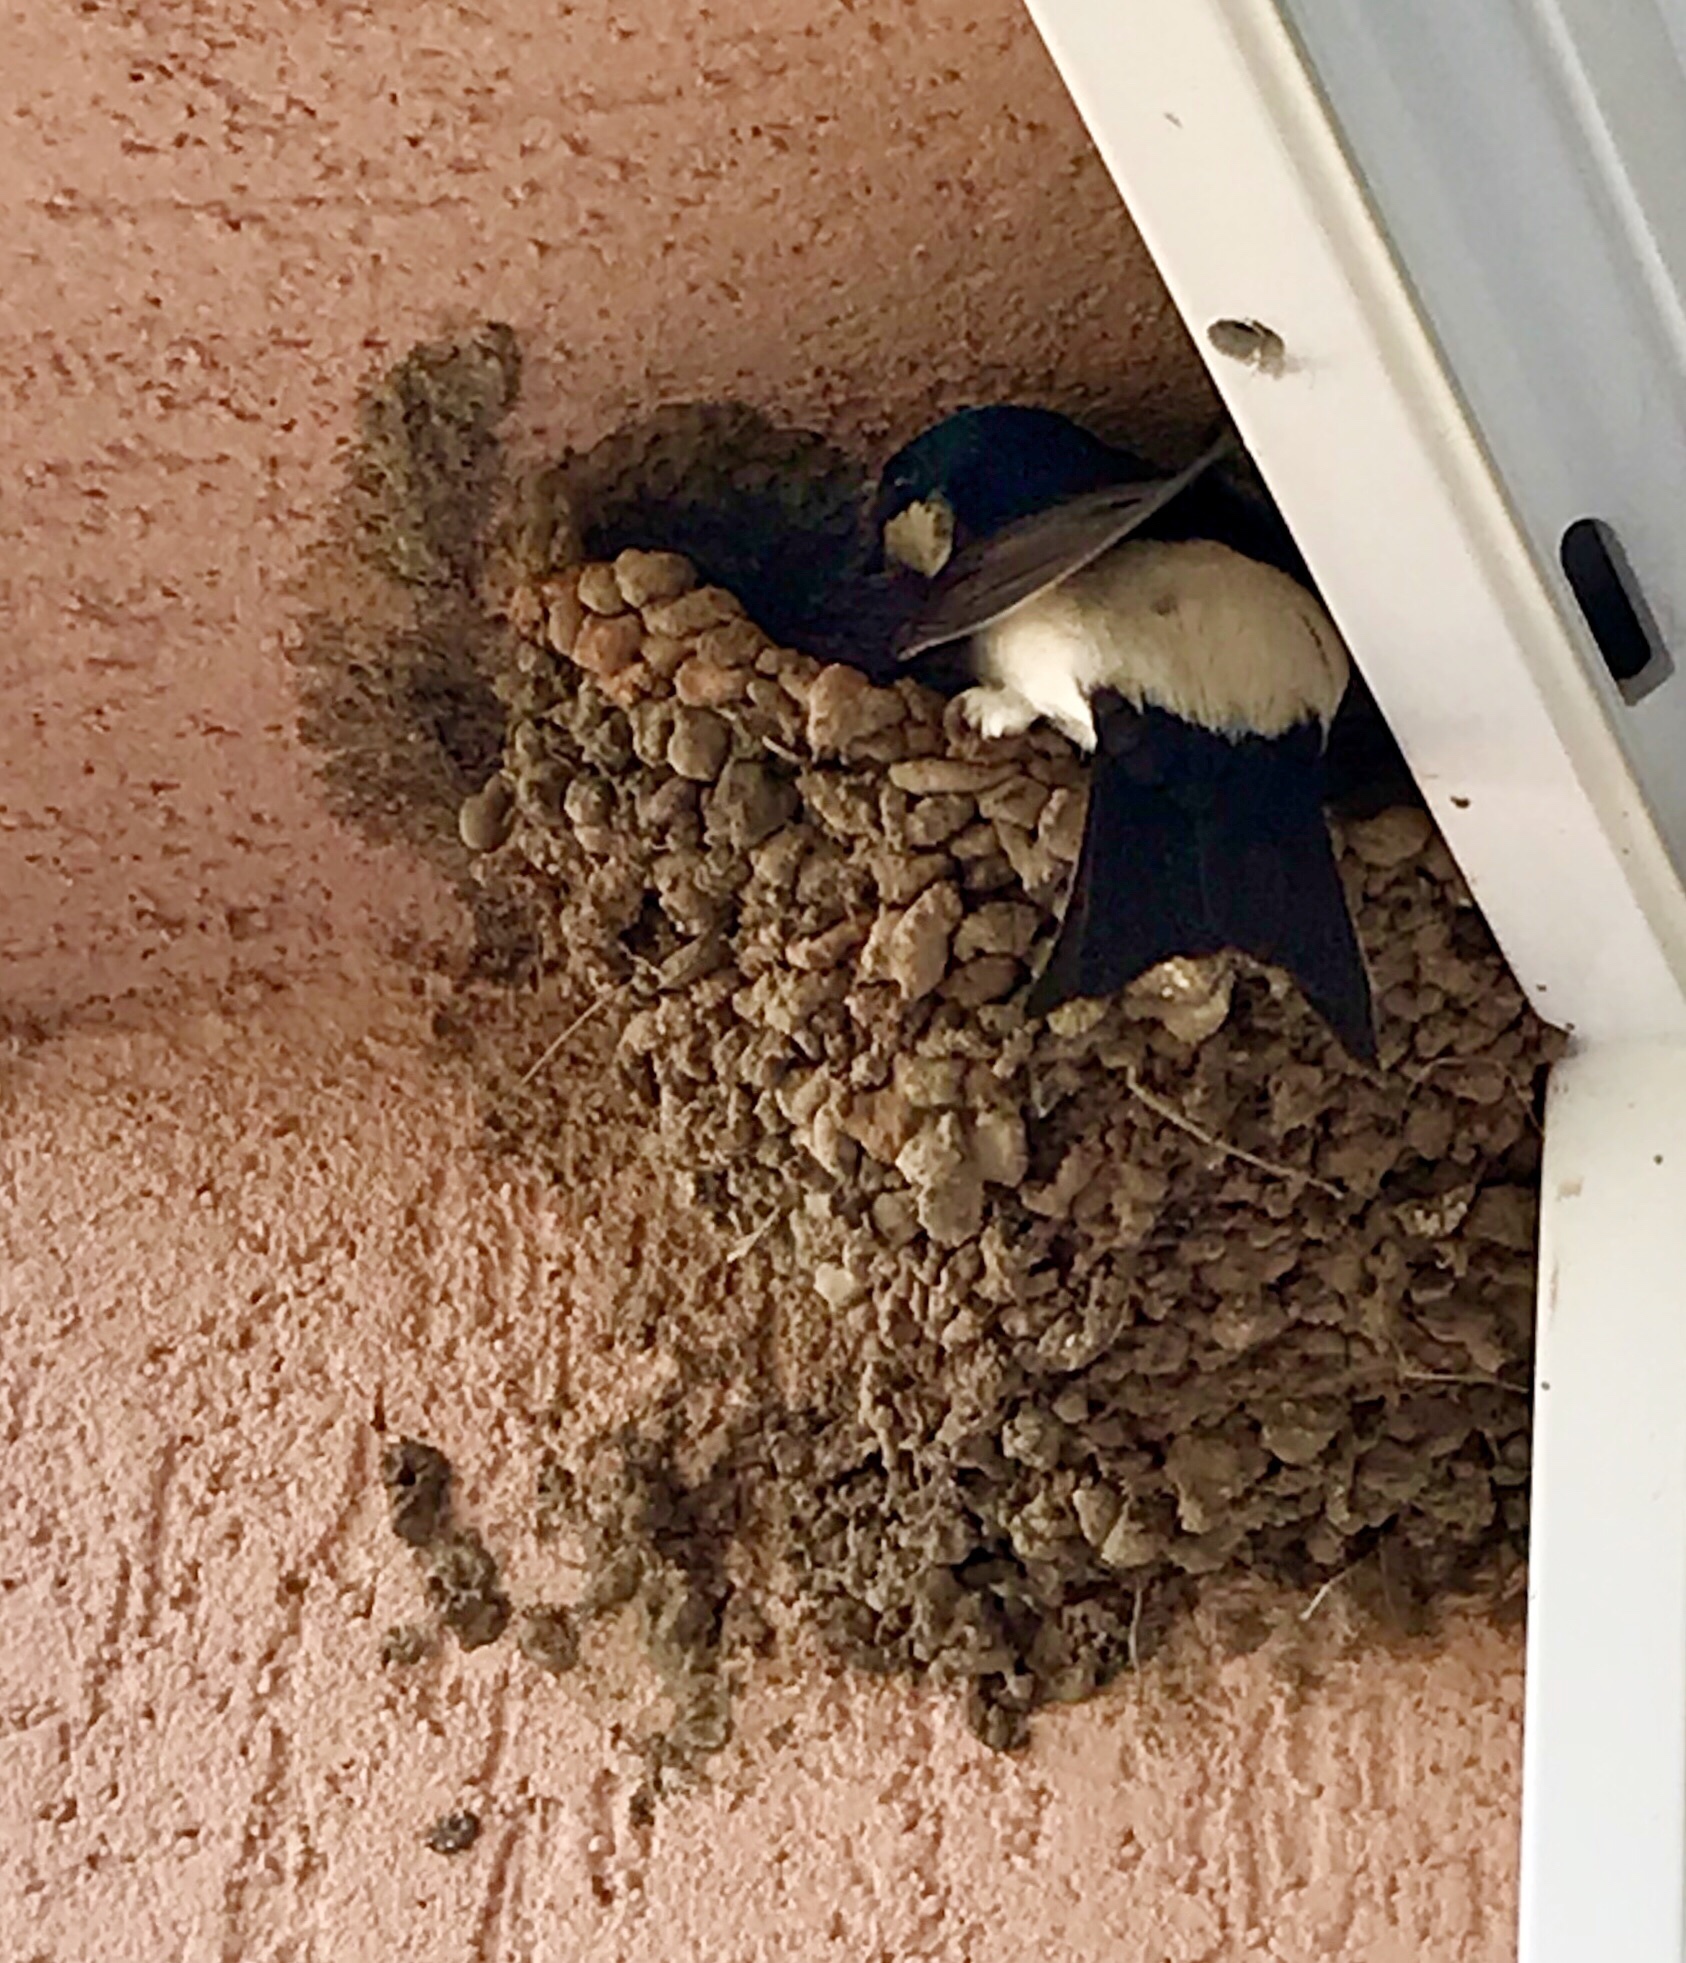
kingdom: Animalia
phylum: Chordata
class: Aves
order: Passeriformes
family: Hirundinidae
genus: Delichon
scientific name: Delichon urbicum
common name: Common house martin
